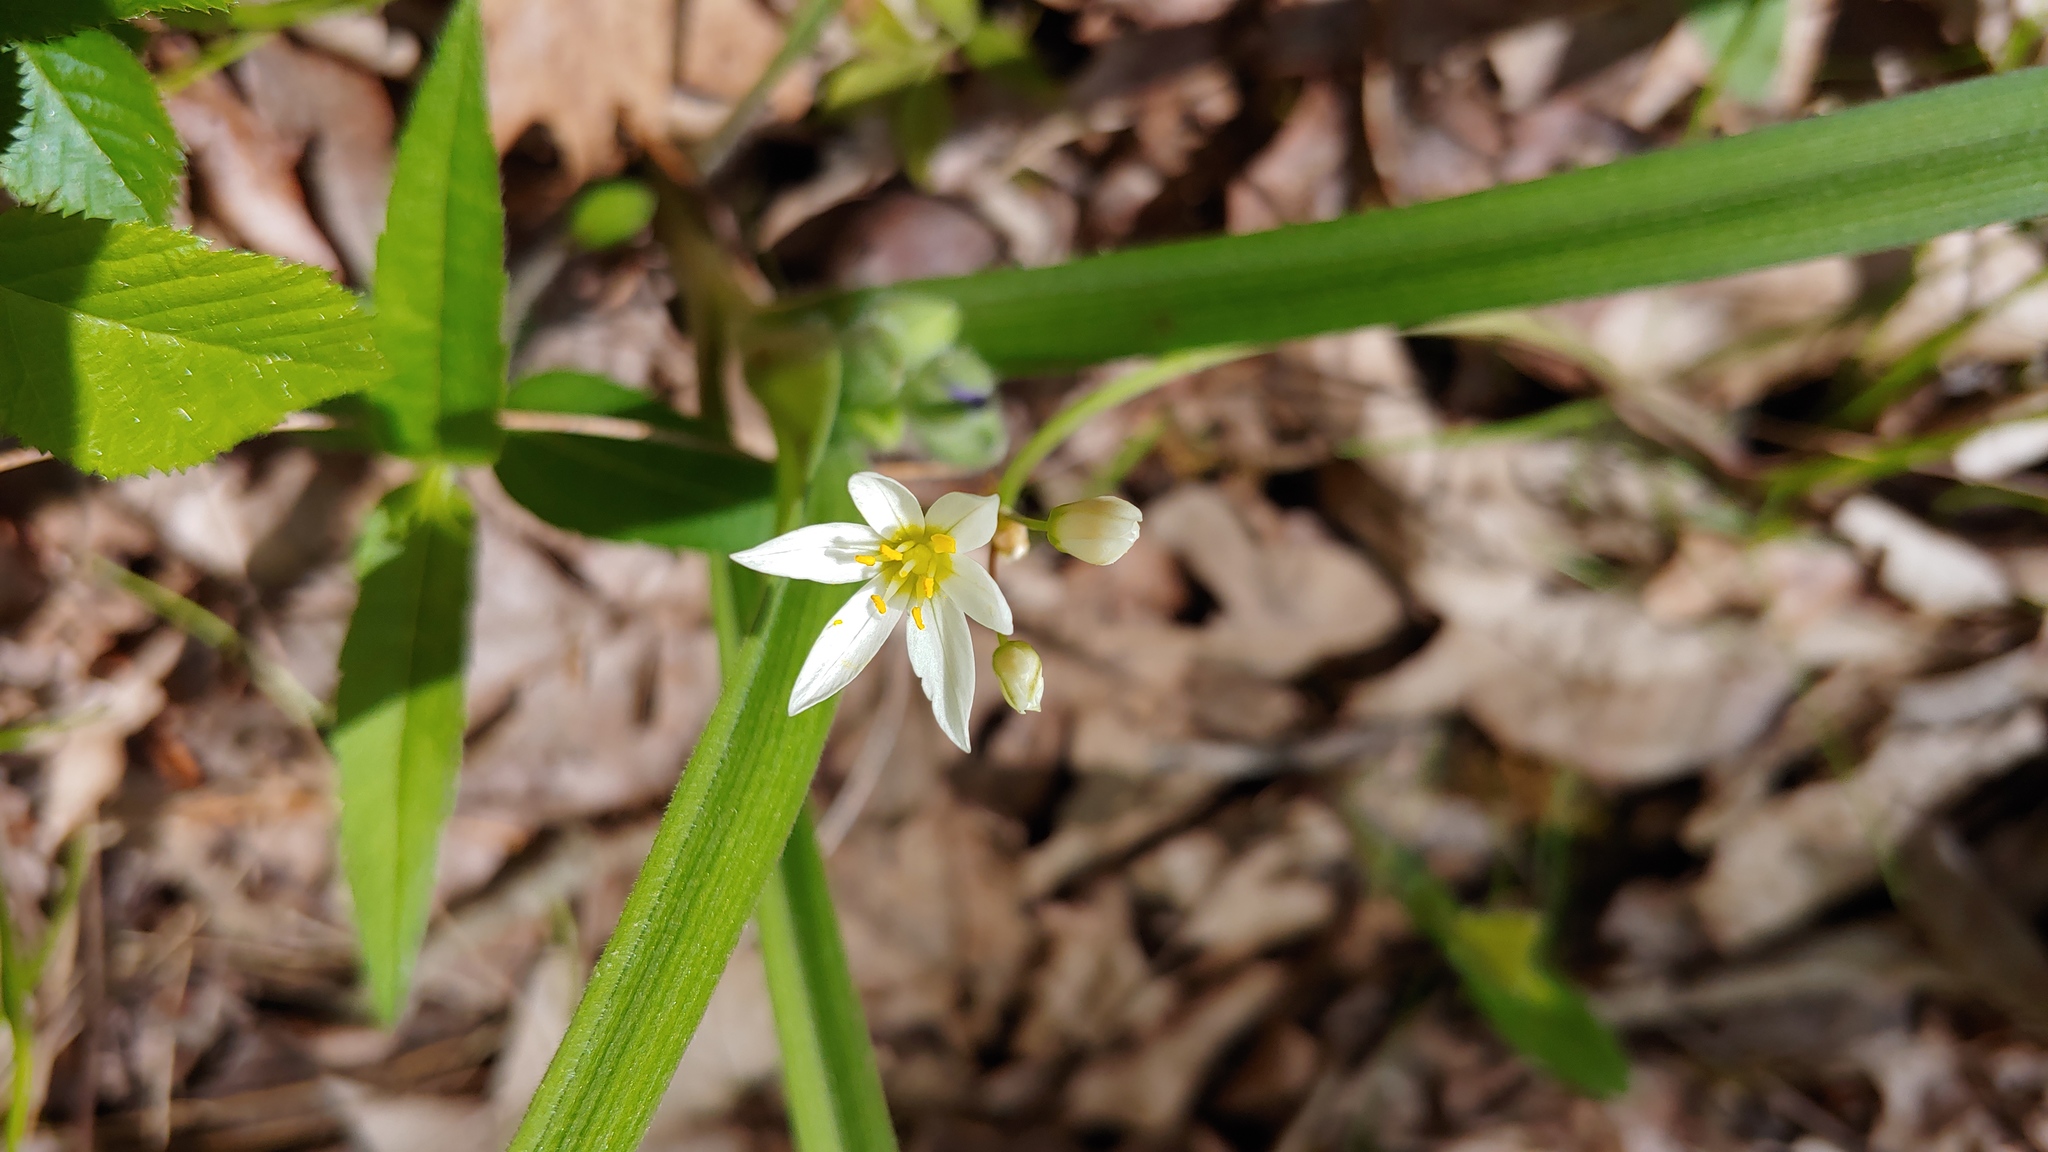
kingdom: Plantae
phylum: Tracheophyta
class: Liliopsida
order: Asparagales
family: Amaryllidaceae
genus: Nothoscordum
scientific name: Nothoscordum bivalve
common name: Crow-poison
